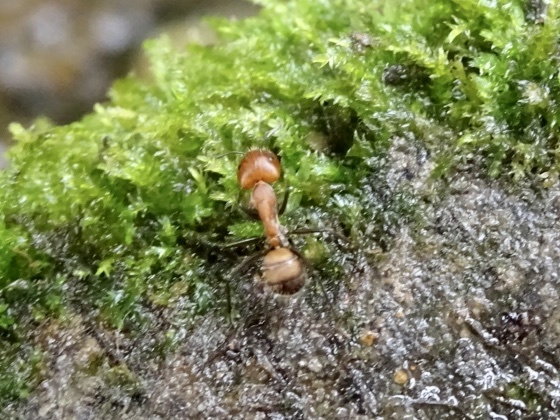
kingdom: Animalia
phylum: Arthropoda
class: Insecta
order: Hymenoptera
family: Formicidae
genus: Camponotus
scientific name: Camponotus nicobarensis
